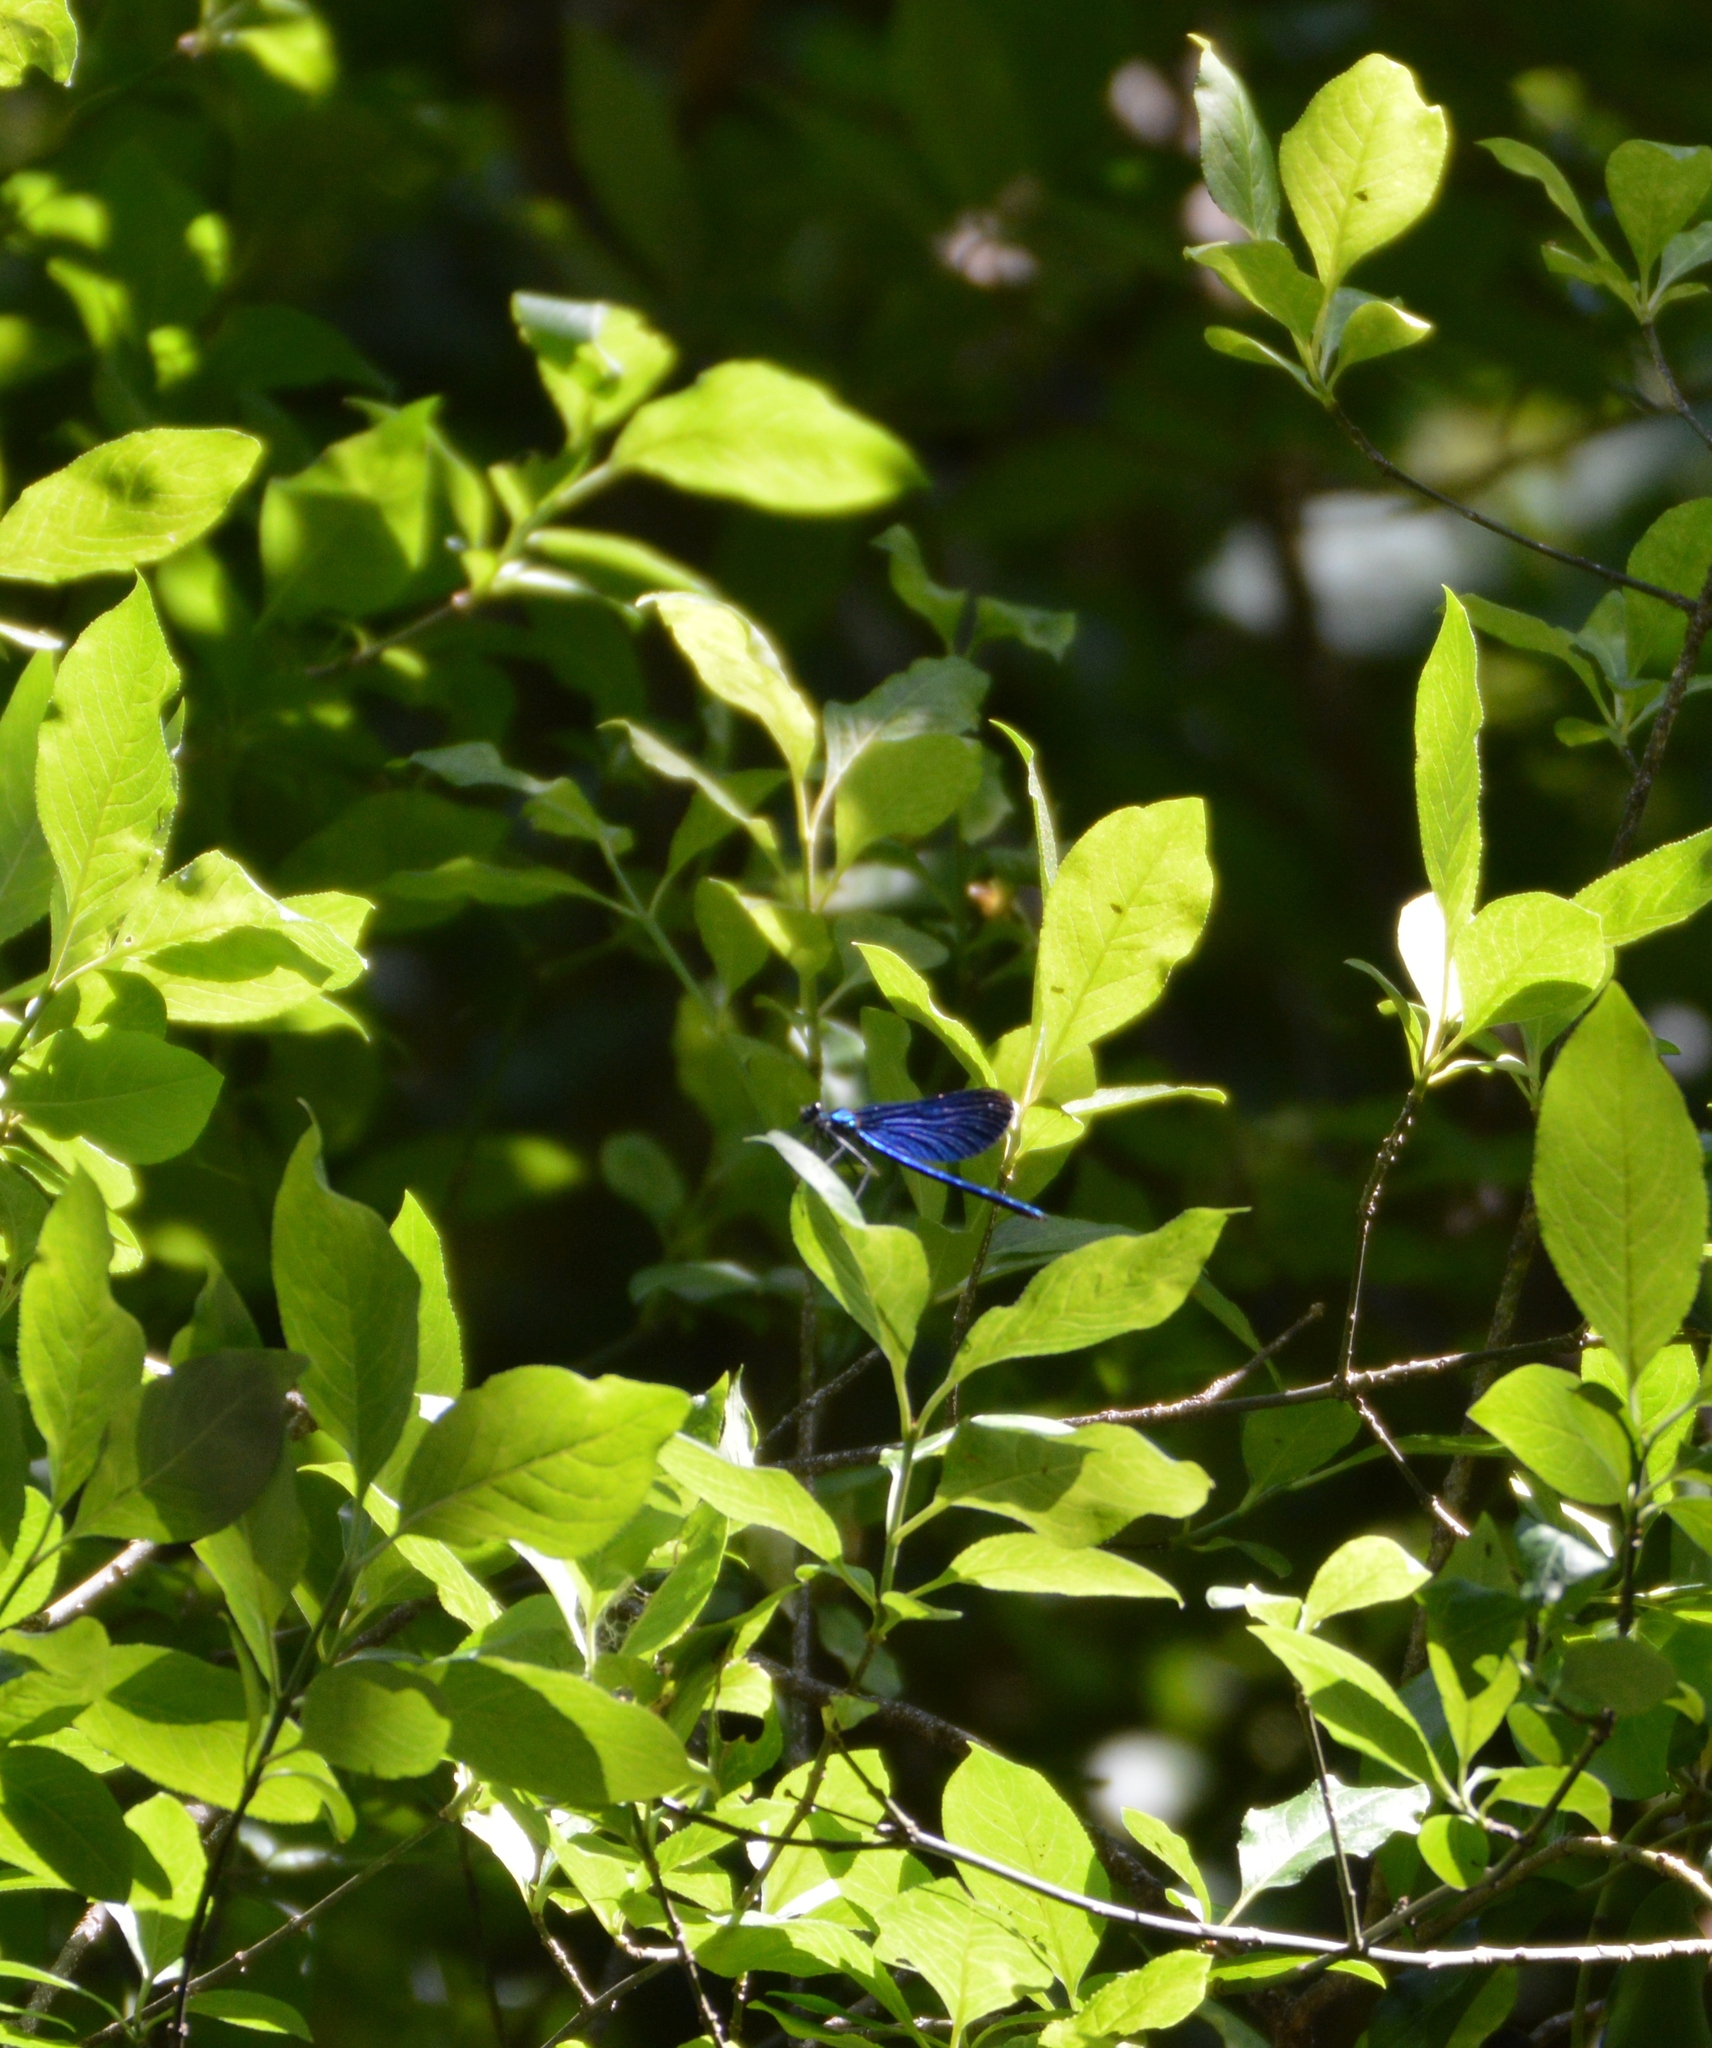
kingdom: Animalia
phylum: Arthropoda
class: Insecta
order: Odonata
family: Calopterygidae
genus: Calopteryx
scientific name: Calopteryx virgo
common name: Beautiful demoiselle
